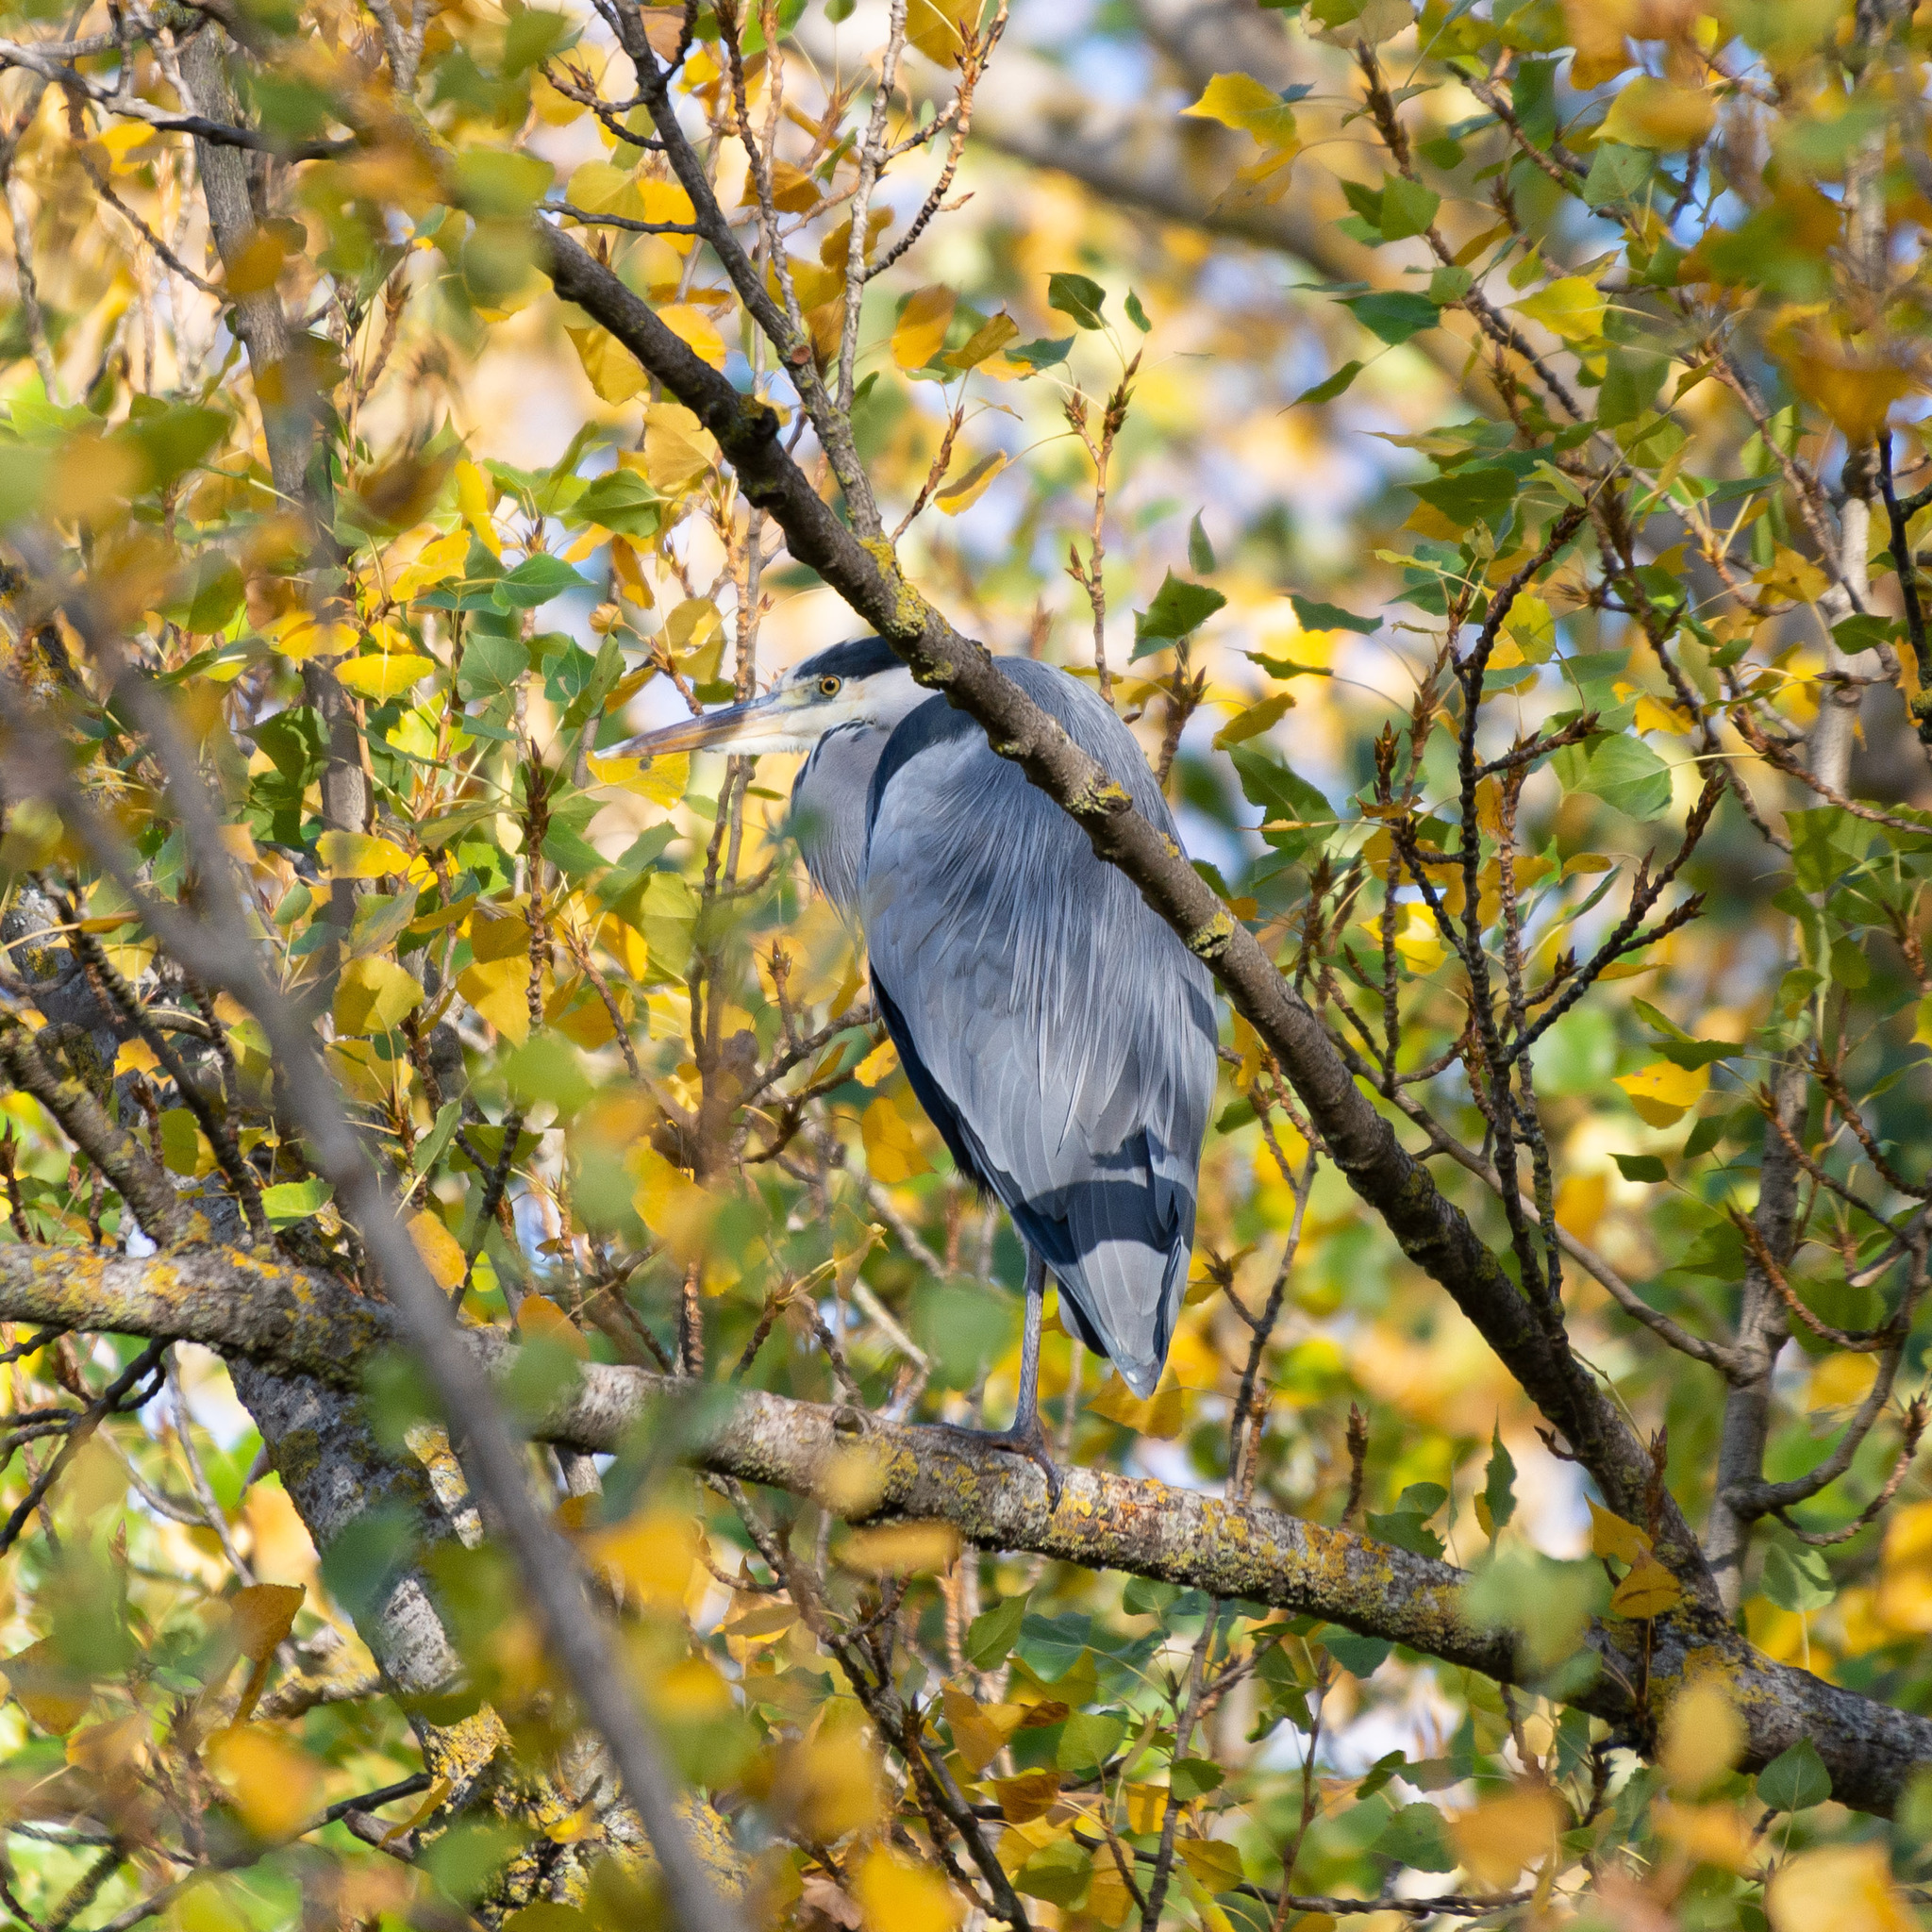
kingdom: Animalia
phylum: Chordata
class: Aves
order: Pelecaniformes
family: Ardeidae
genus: Ardea
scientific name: Ardea cinerea
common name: Grey heron
